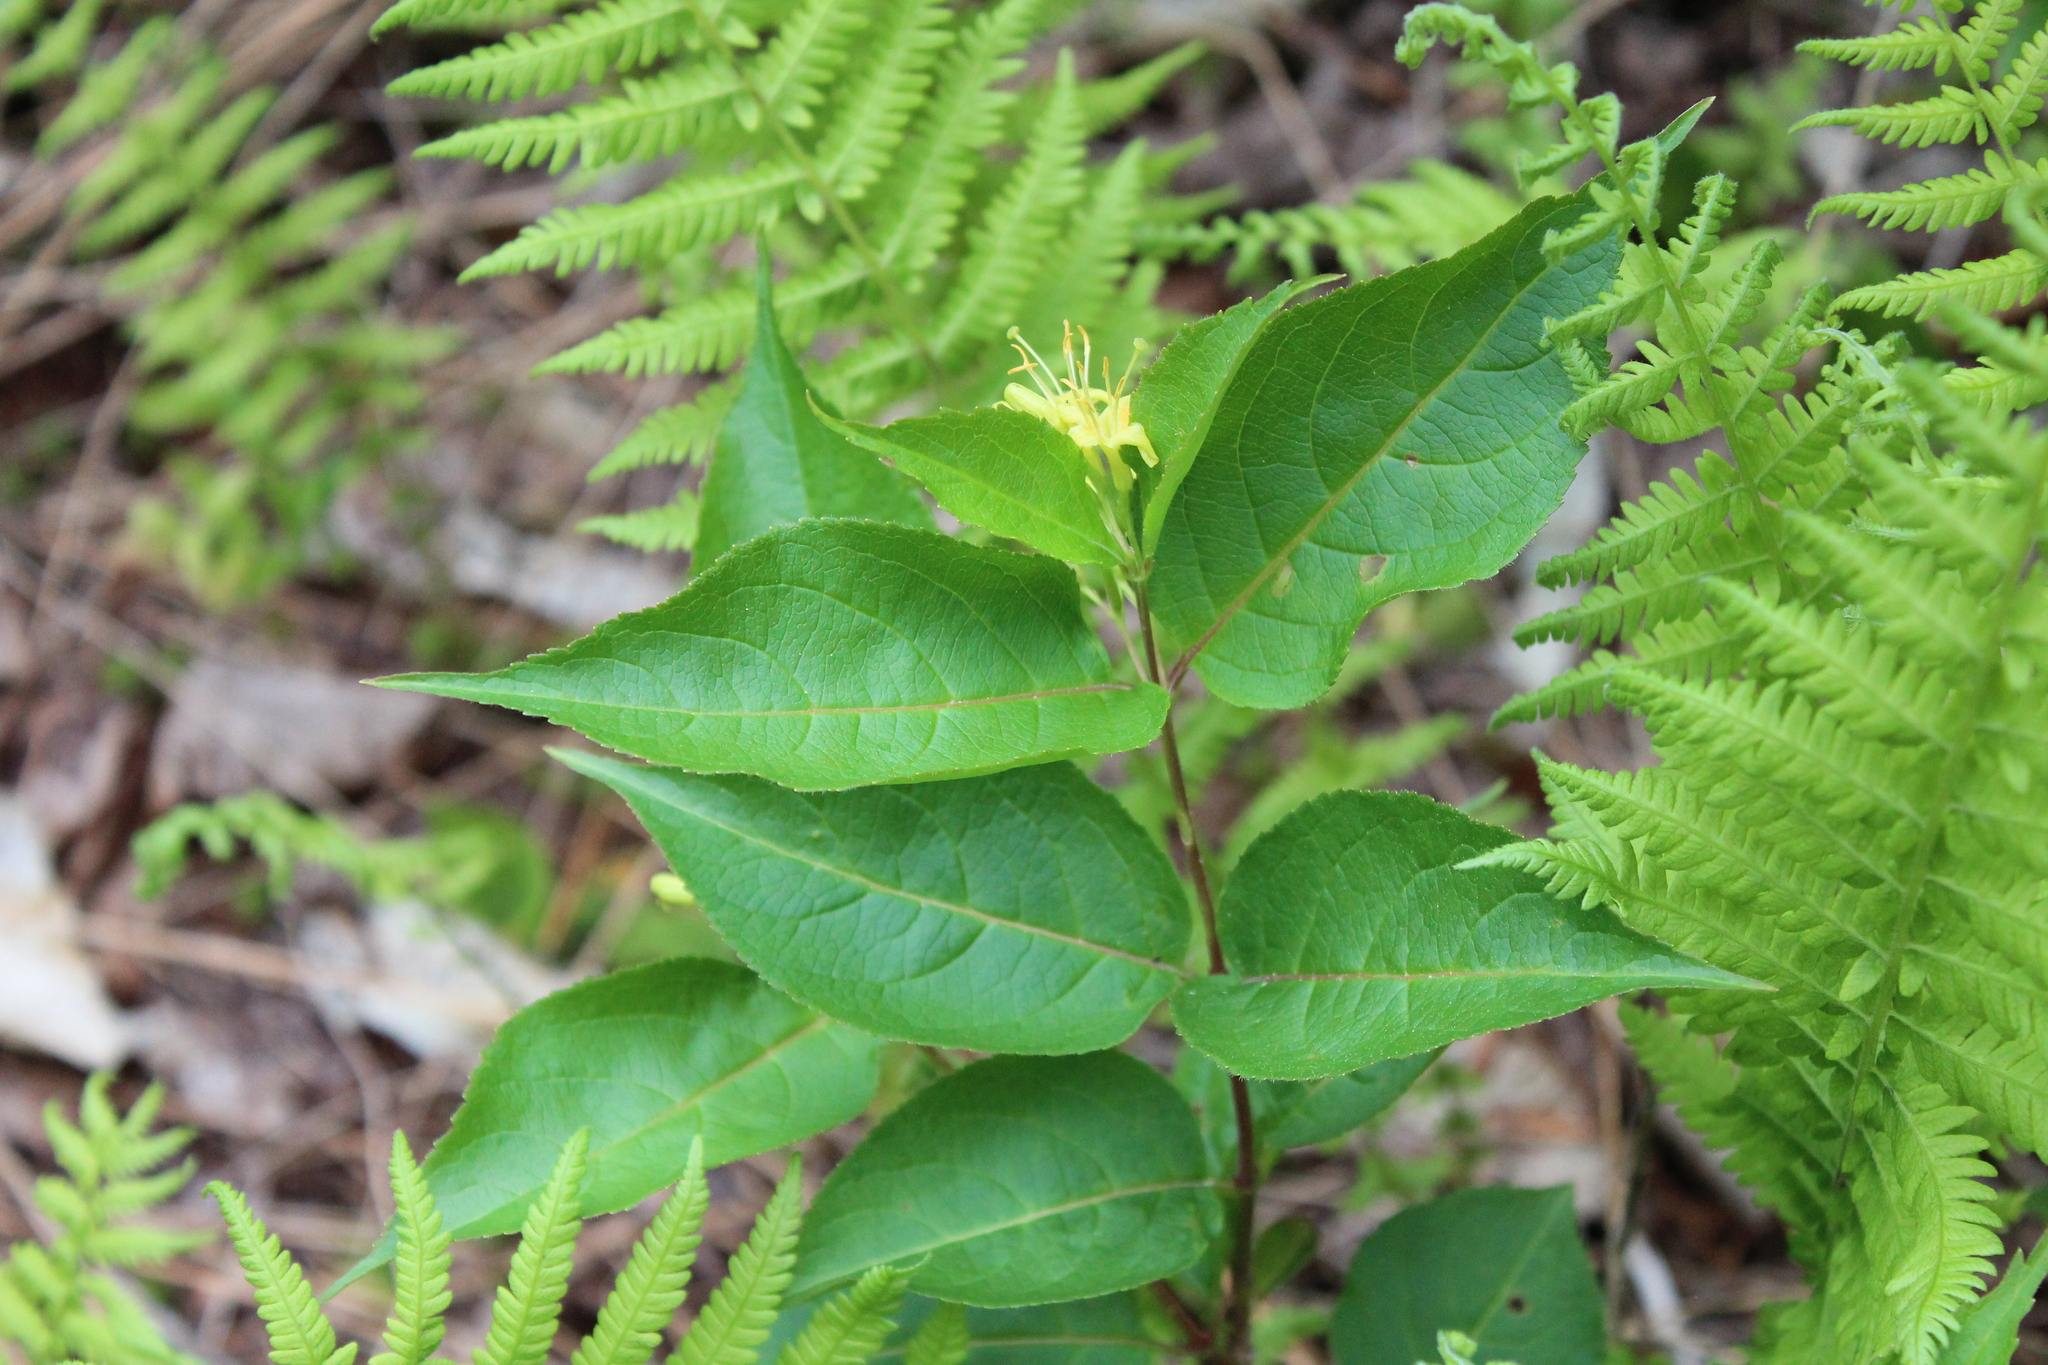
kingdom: Plantae
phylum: Tracheophyta
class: Magnoliopsida
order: Dipsacales
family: Caprifoliaceae
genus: Diervilla
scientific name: Diervilla lonicera
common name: Bush-honeysuckle
